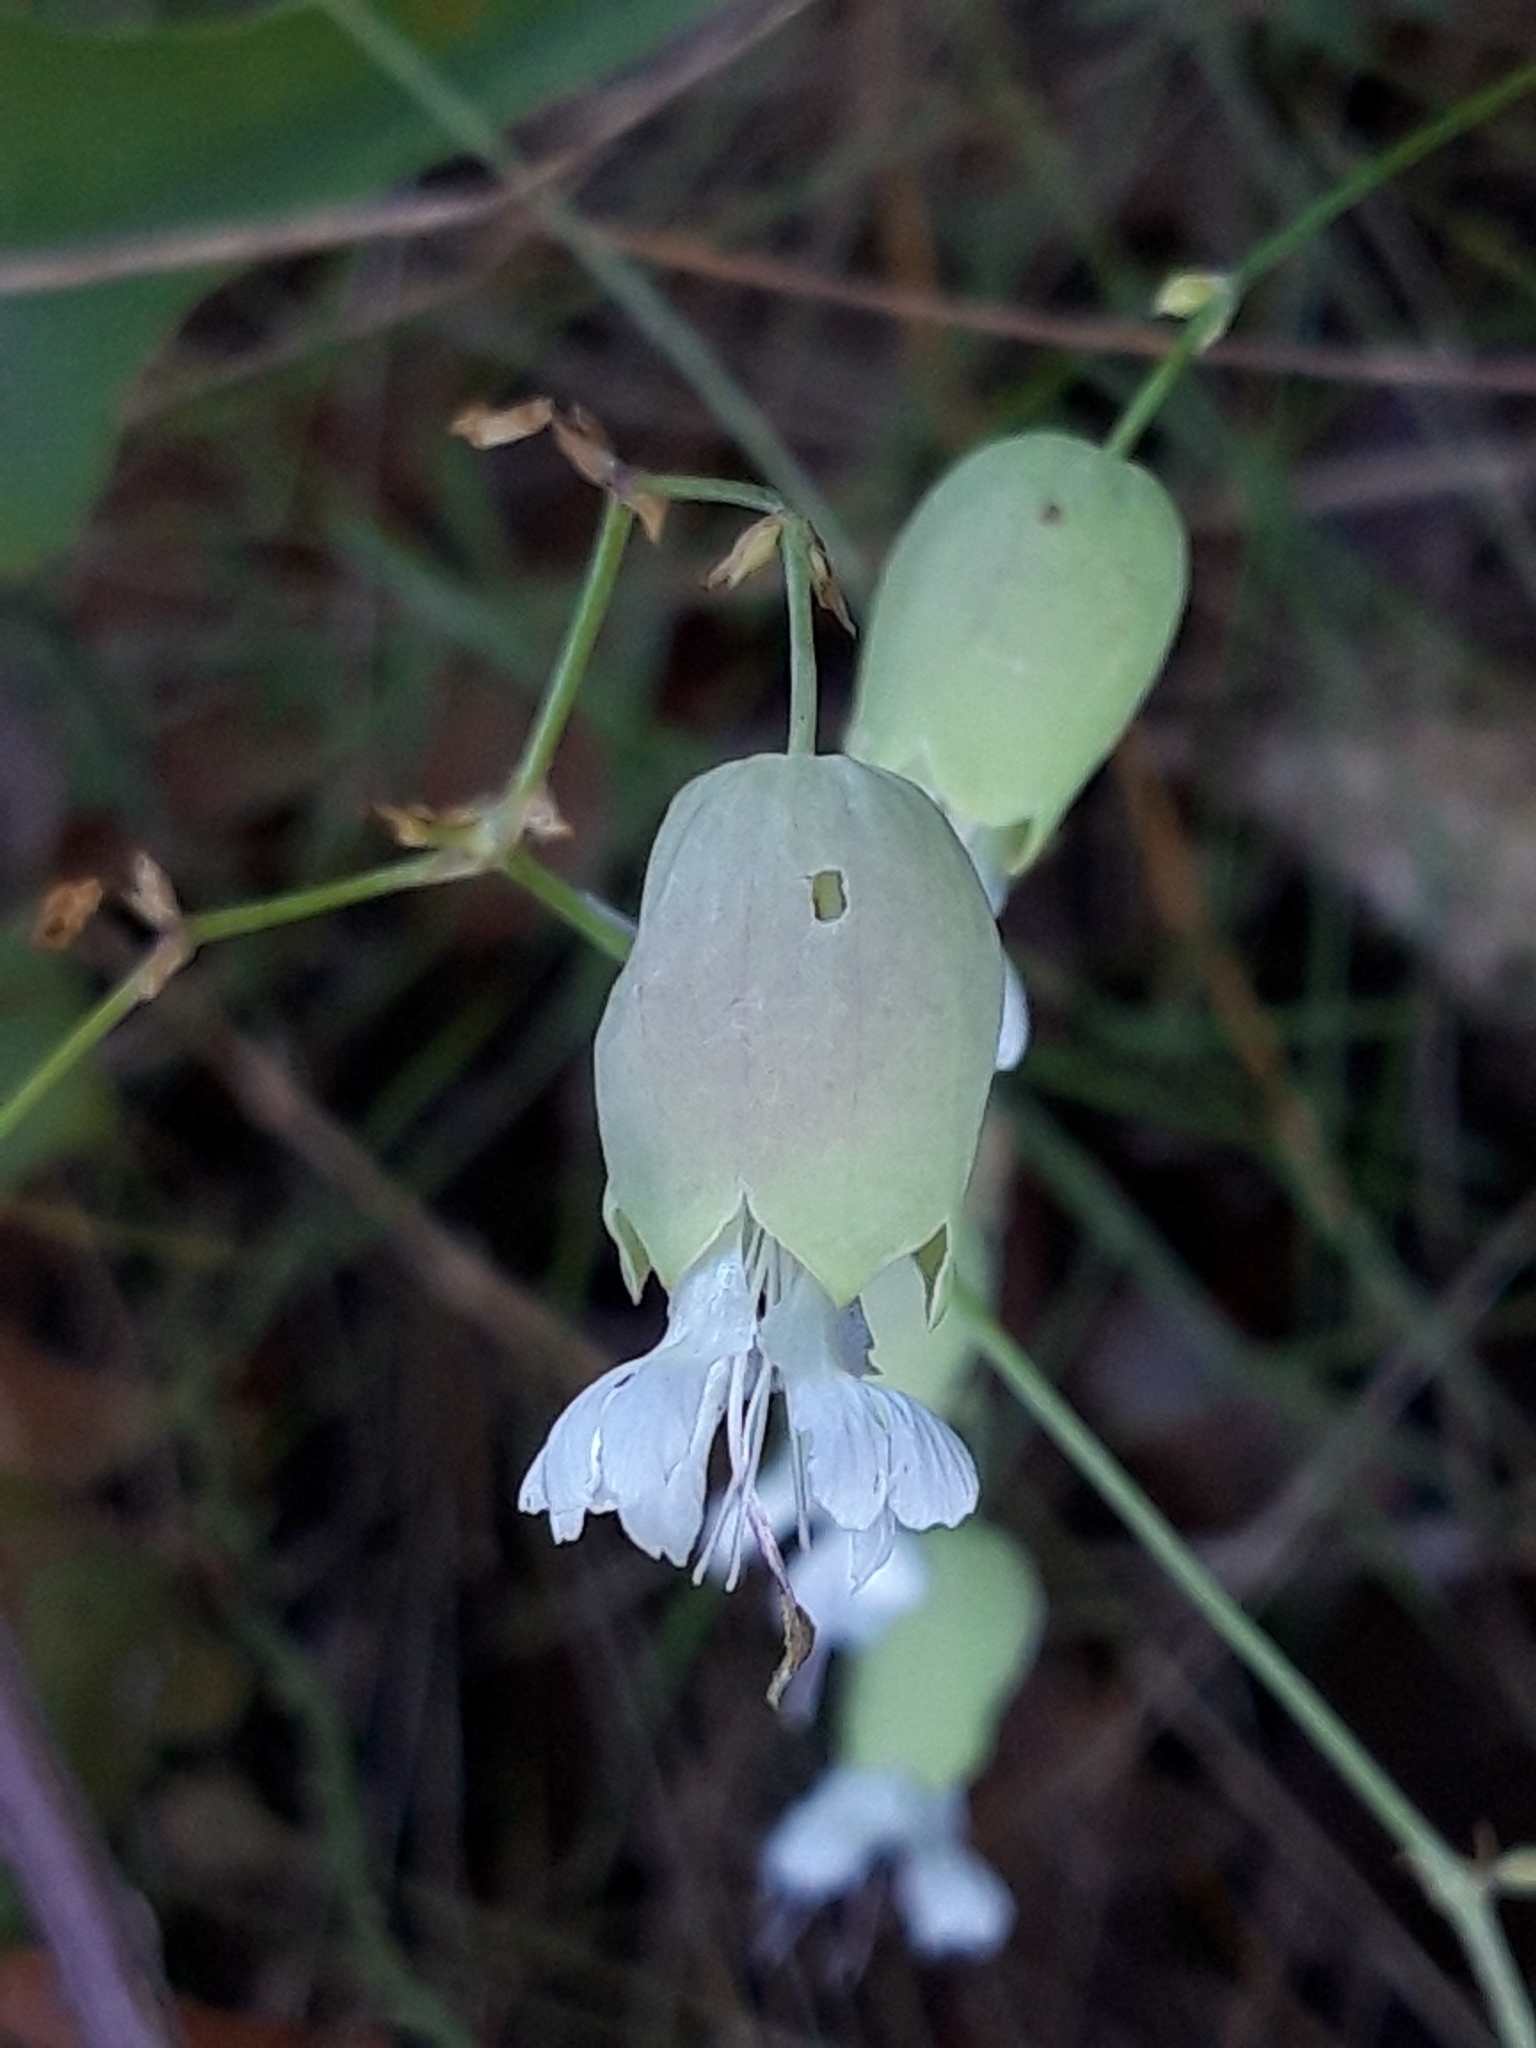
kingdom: Plantae
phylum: Tracheophyta
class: Magnoliopsida
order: Caryophyllales
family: Caryophyllaceae
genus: Silene
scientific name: Silene vulgaris
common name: Bladder campion
